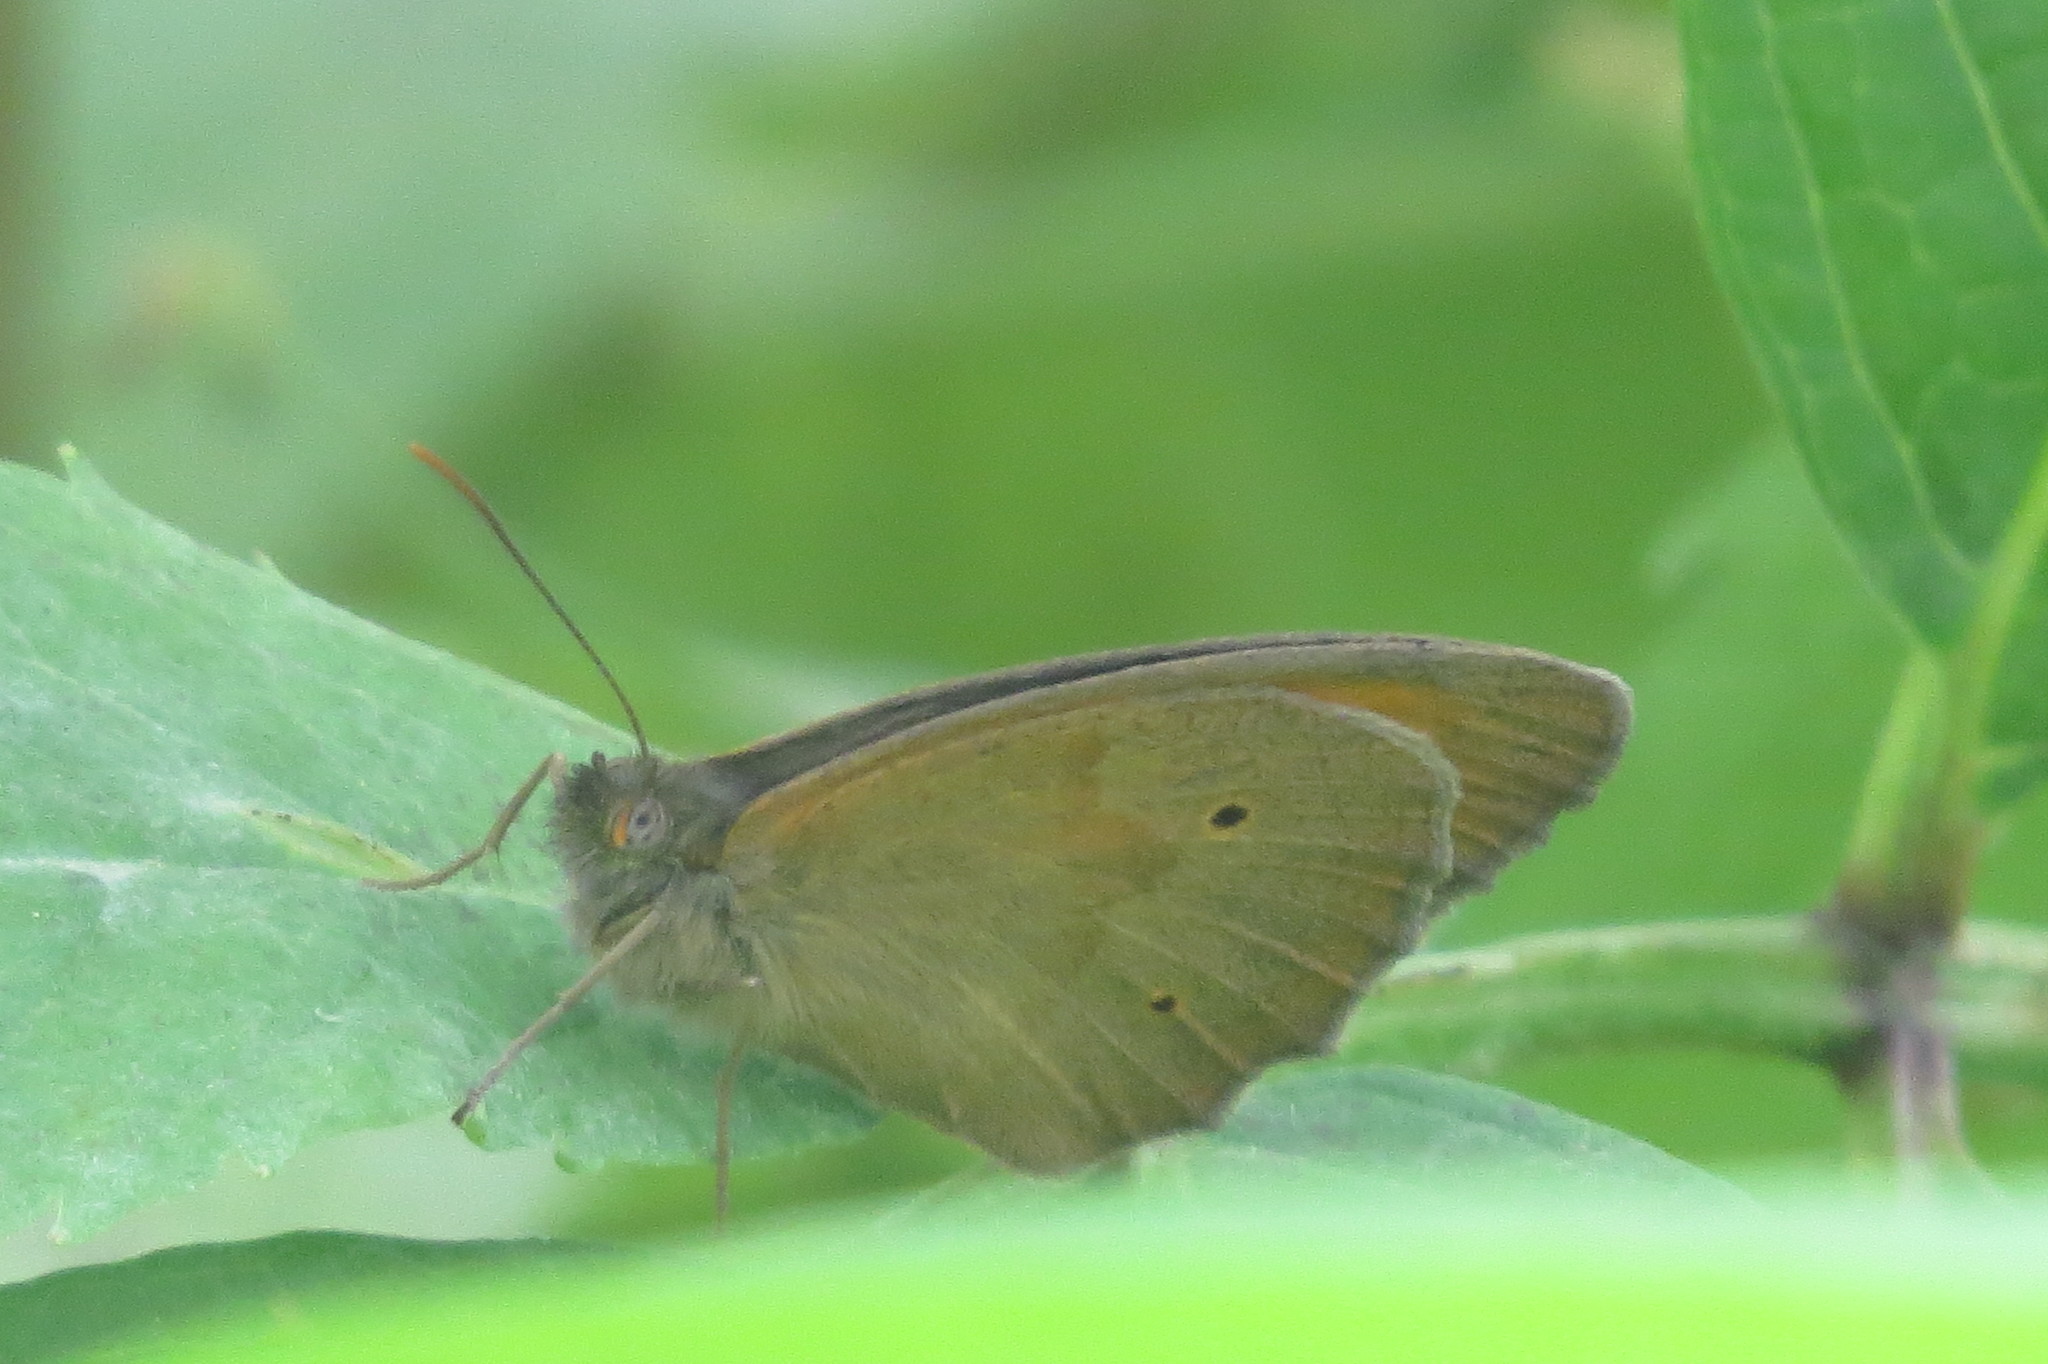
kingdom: Animalia
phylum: Arthropoda
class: Insecta
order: Lepidoptera
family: Nymphalidae
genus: Maniola
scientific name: Maniola jurtina
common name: Meadow brown
